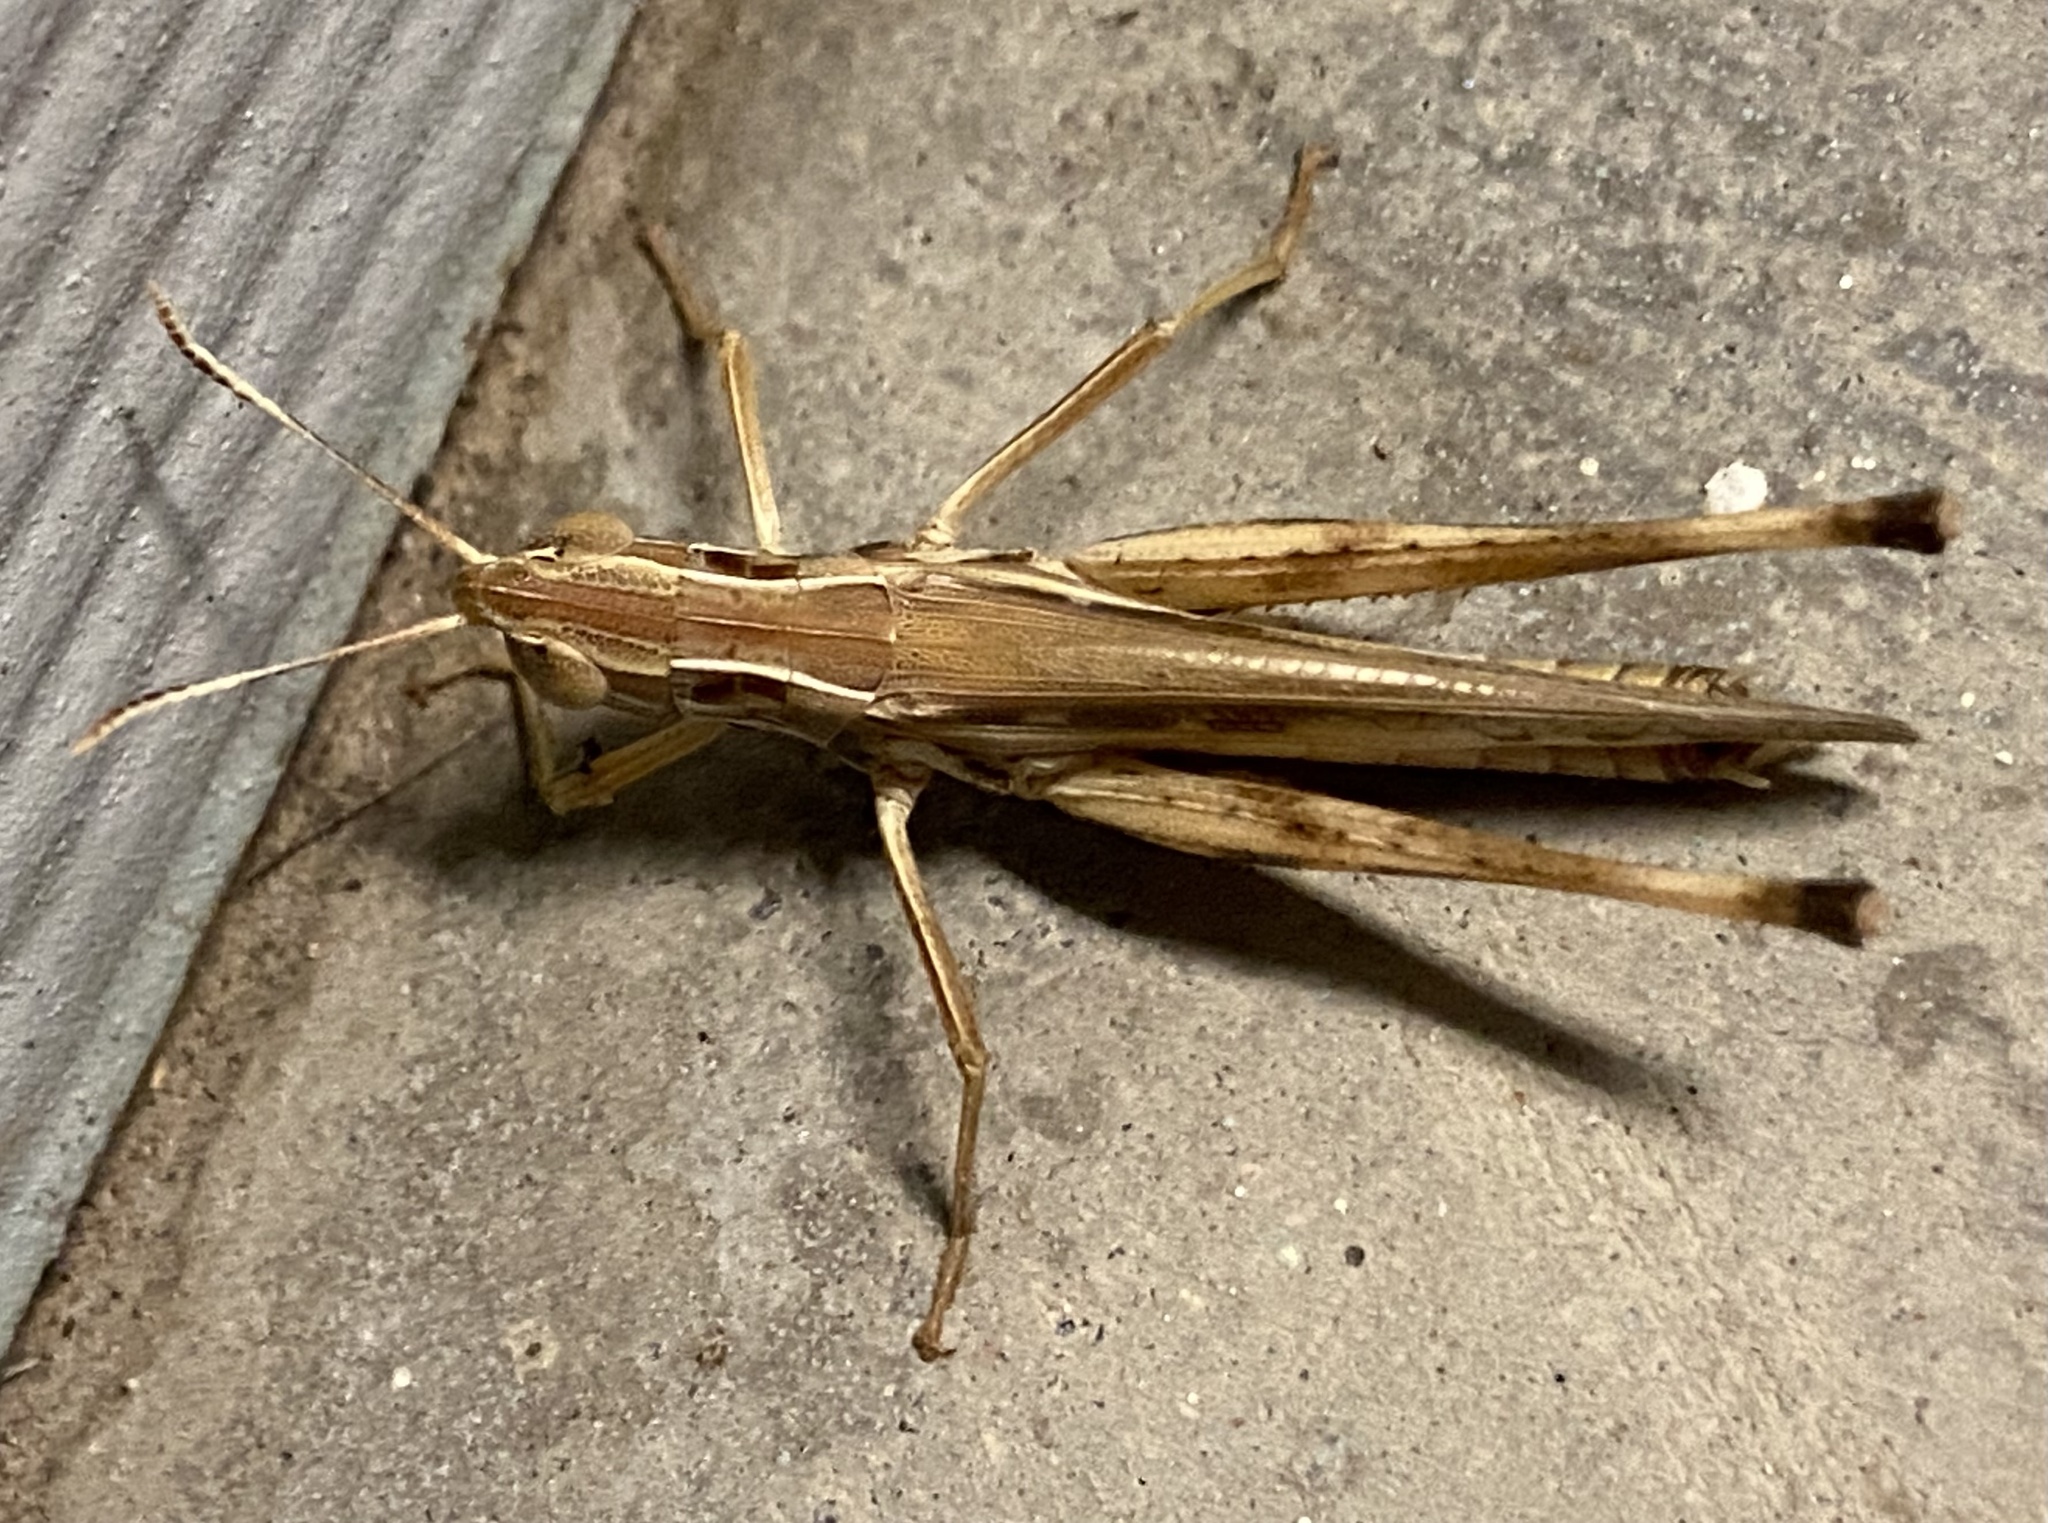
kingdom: Animalia
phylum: Arthropoda
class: Insecta
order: Orthoptera
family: Acrididae
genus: Syrbula
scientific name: Syrbula admirabilis
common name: Handsome grasshopper
